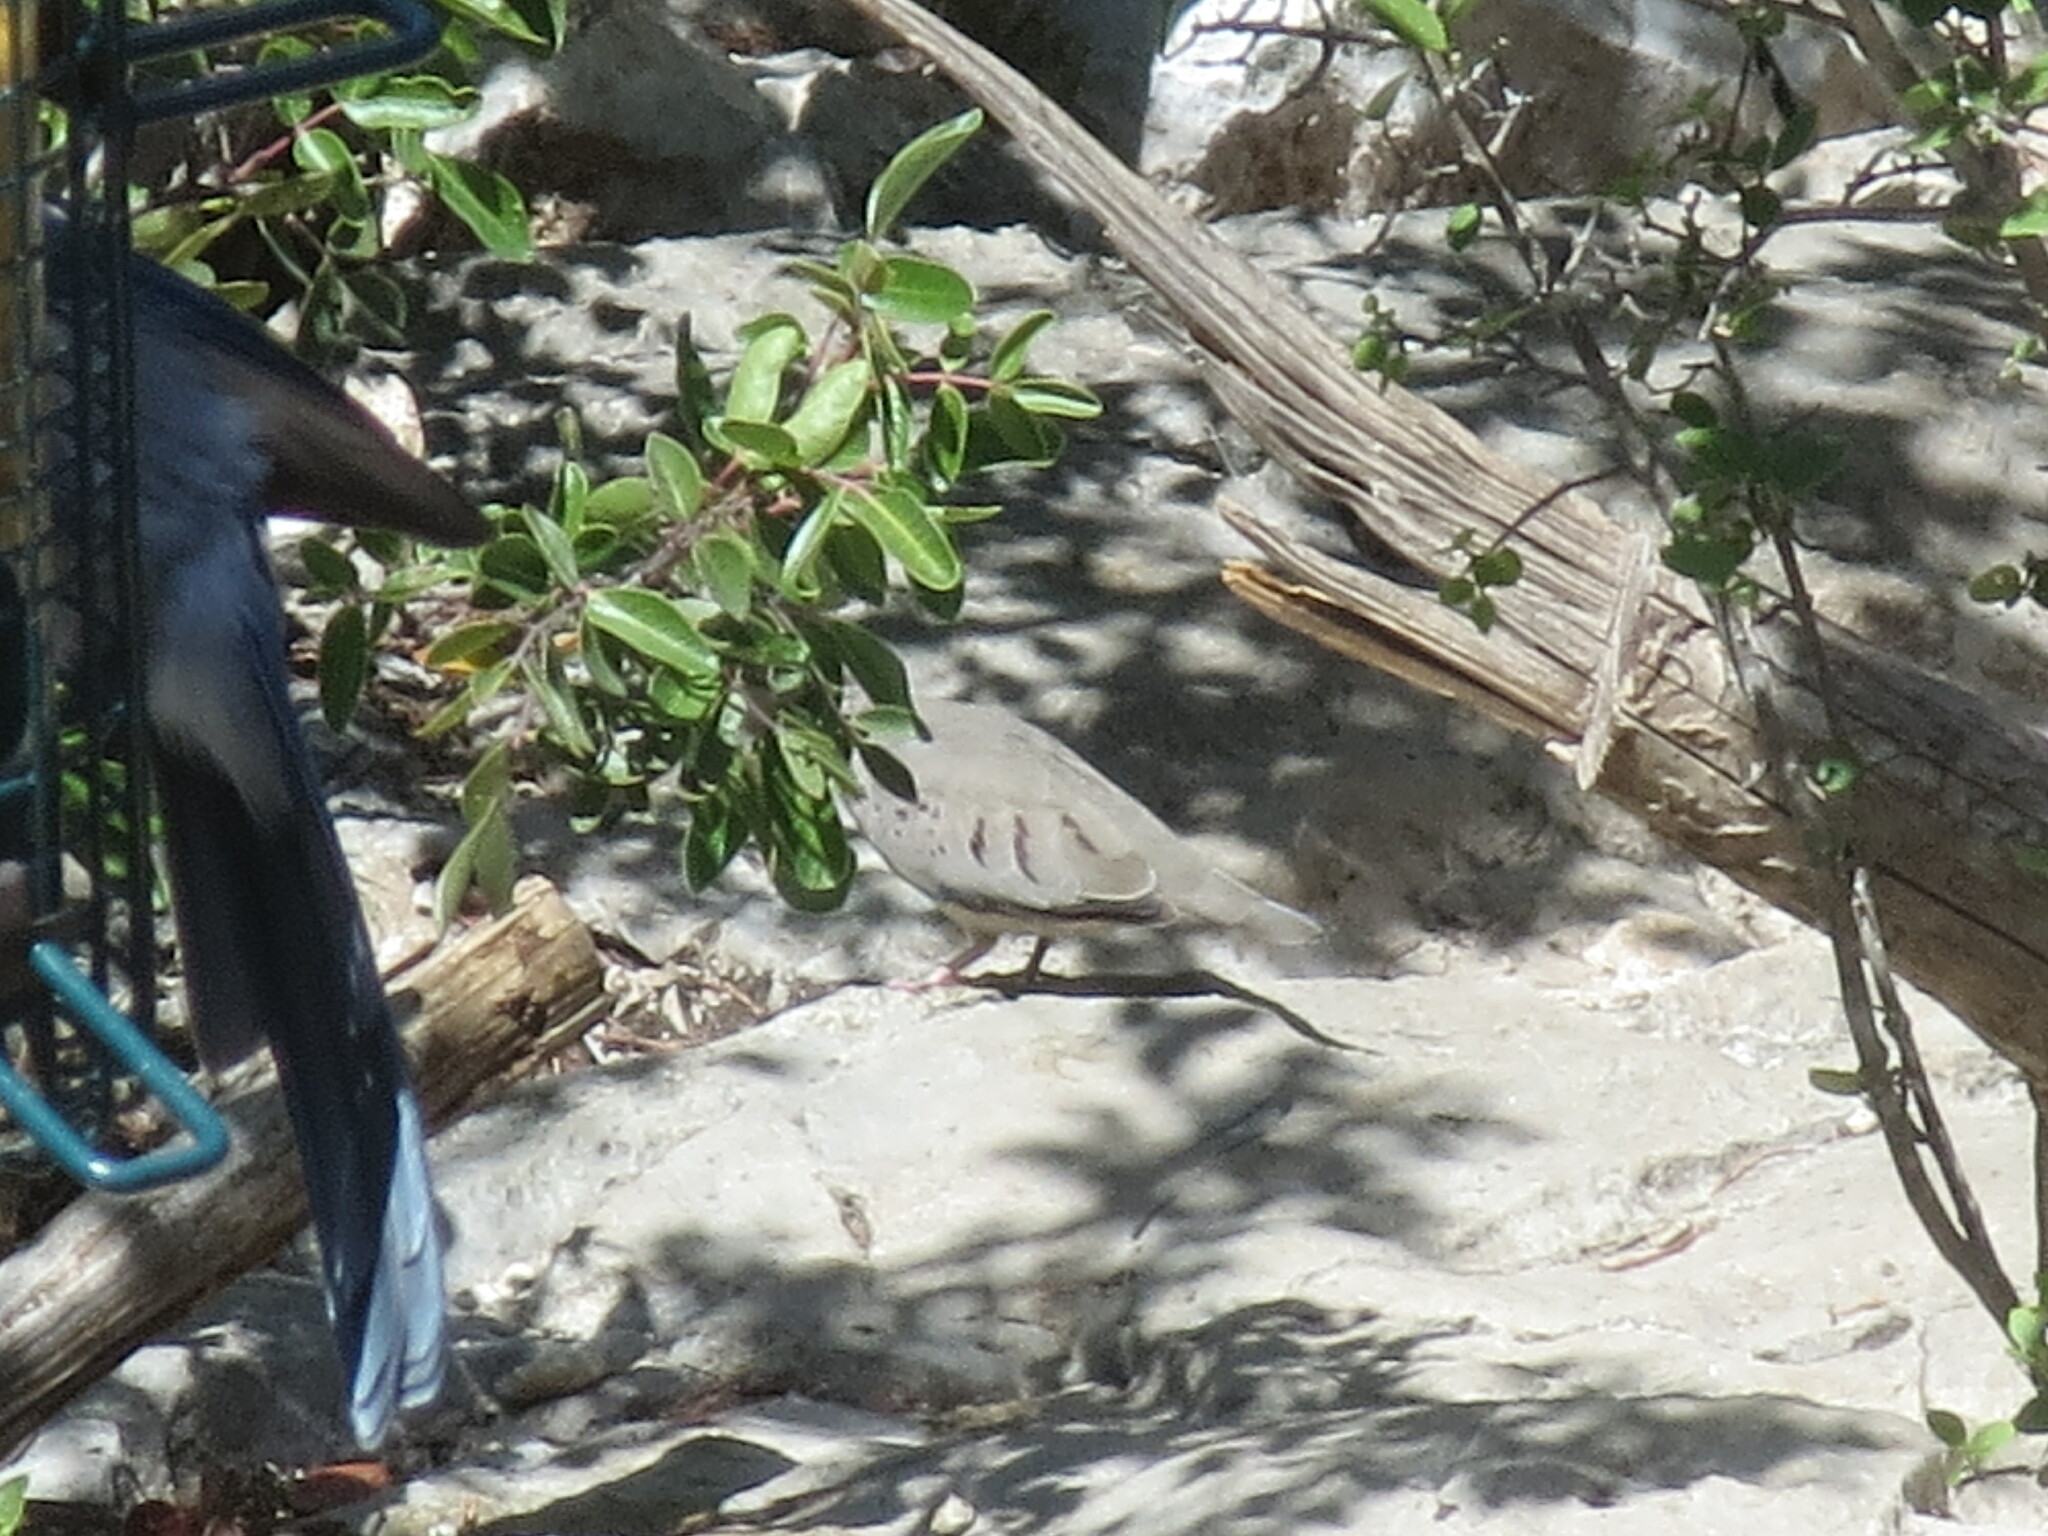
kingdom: Animalia
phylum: Chordata
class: Aves
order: Columbiformes
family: Columbidae
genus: Columbina
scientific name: Columbina passerina
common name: Common ground-dove
